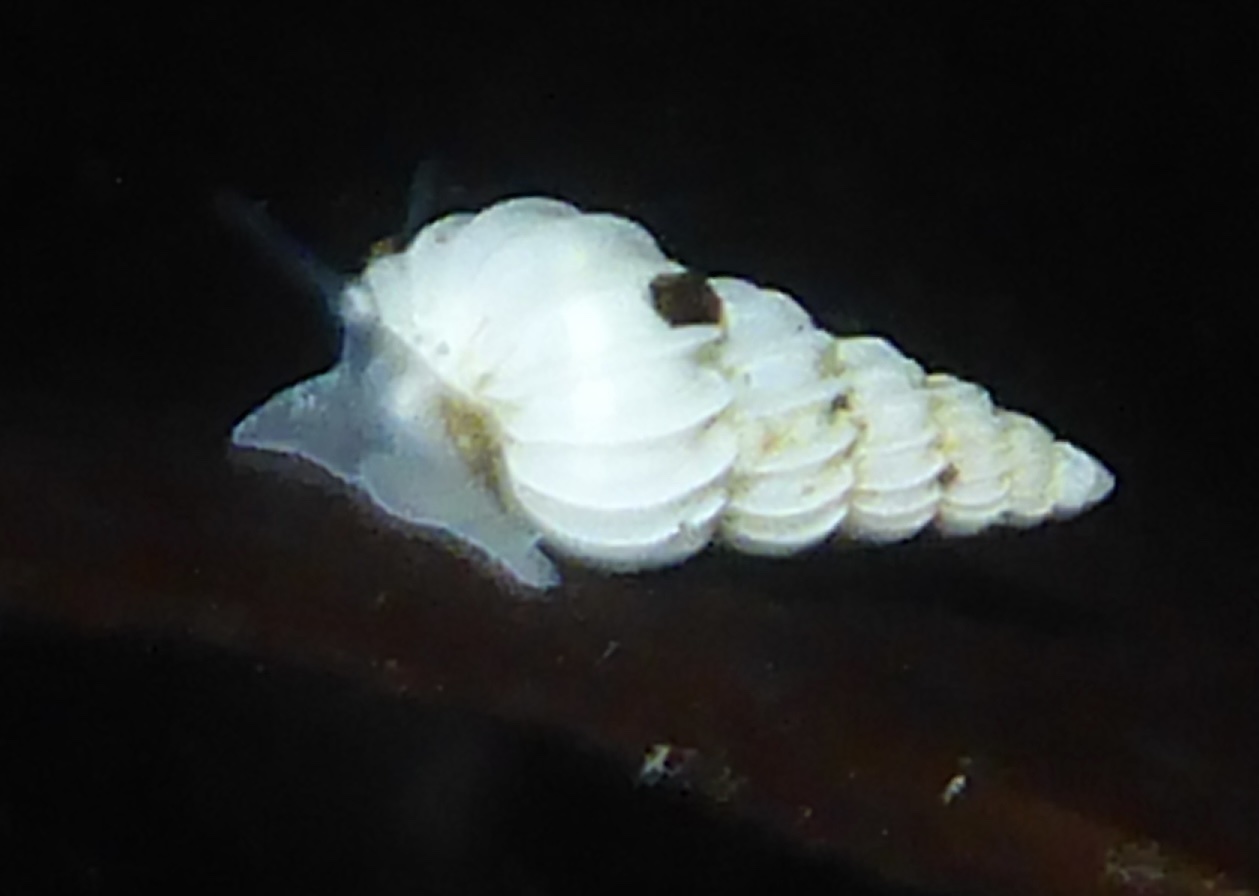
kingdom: Animalia
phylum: Mollusca
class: Gastropoda
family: Epitoniidae
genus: Epitonium
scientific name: Epitonium tinctum
